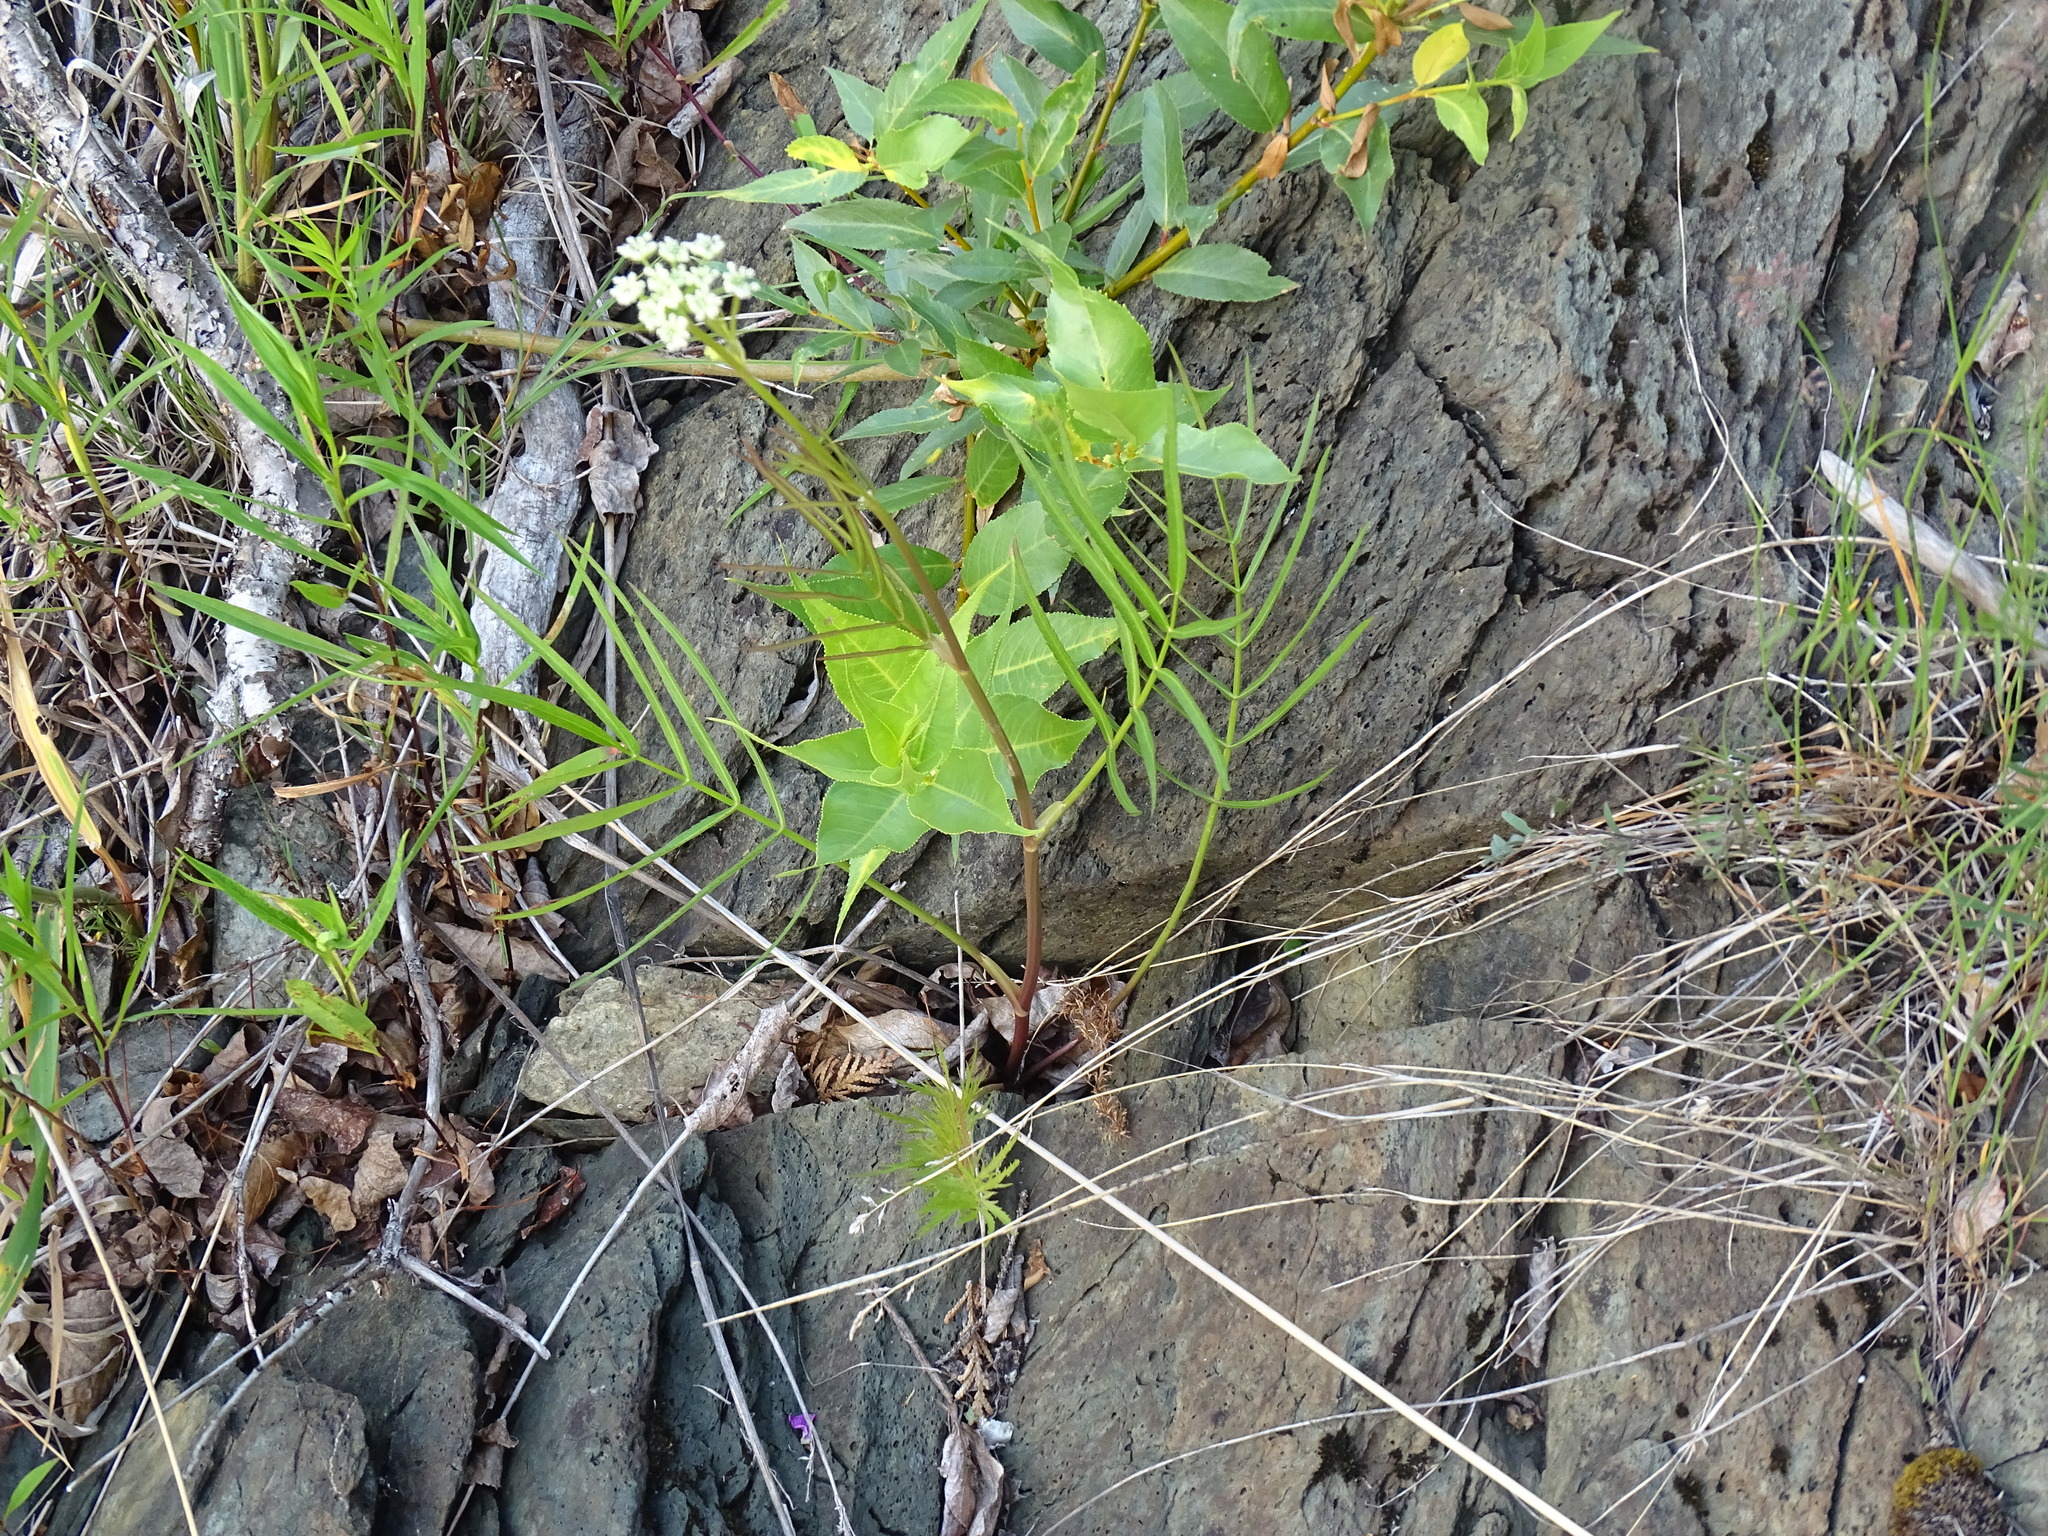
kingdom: Plantae
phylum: Tracheophyta
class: Magnoliopsida
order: Apiales
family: Apiaceae
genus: Sium
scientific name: Sium suave
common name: Hemlock water-parsnip
